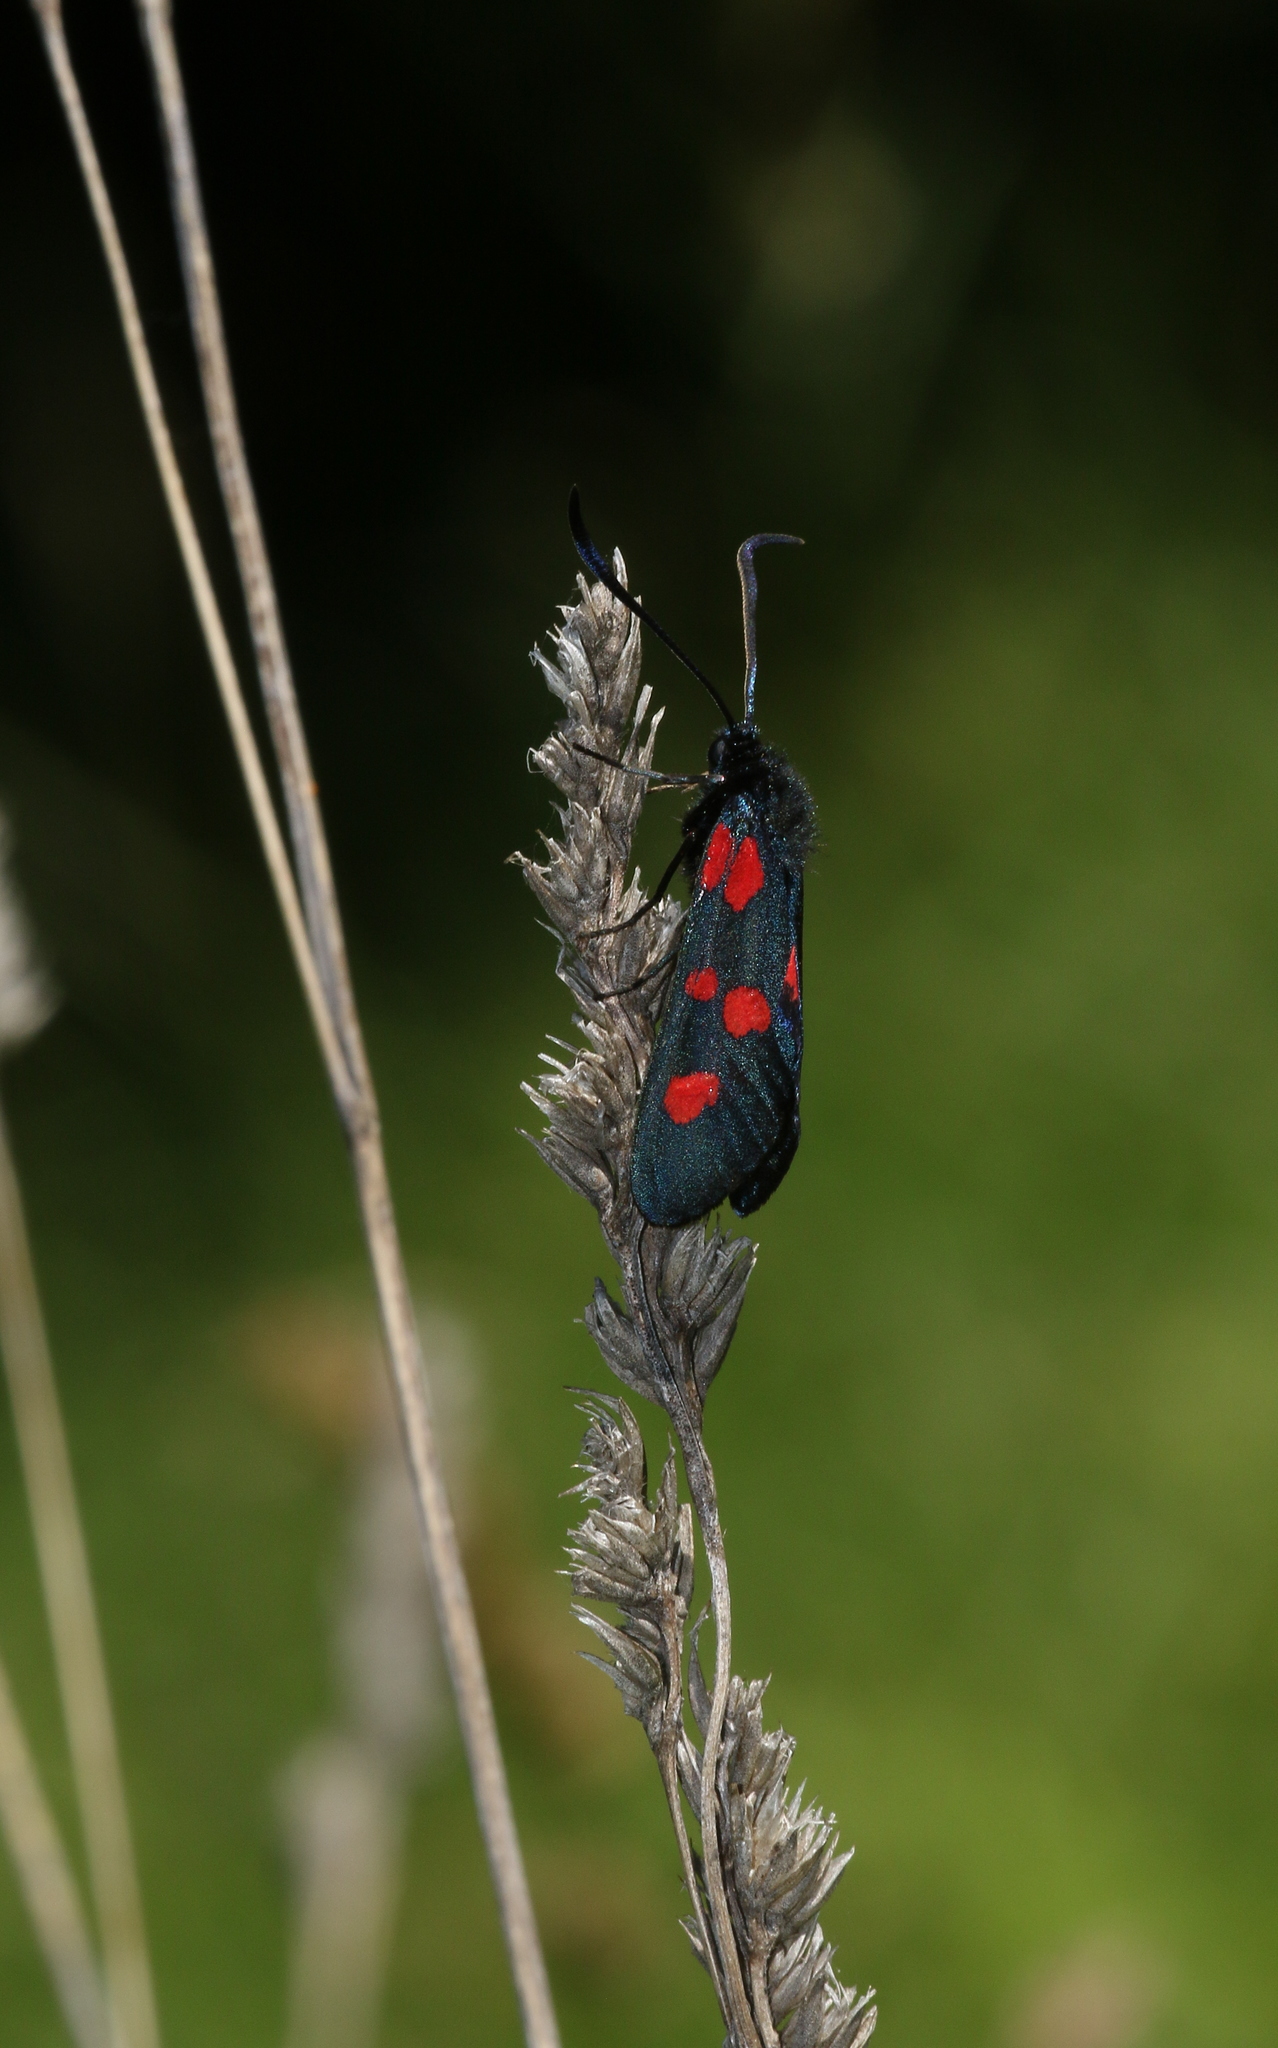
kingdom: Animalia
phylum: Arthropoda
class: Insecta
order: Lepidoptera
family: Zygaenidae
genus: Zygaena
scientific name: Zygaena lonicerae
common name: Narrow-bordered five-spot burnet
